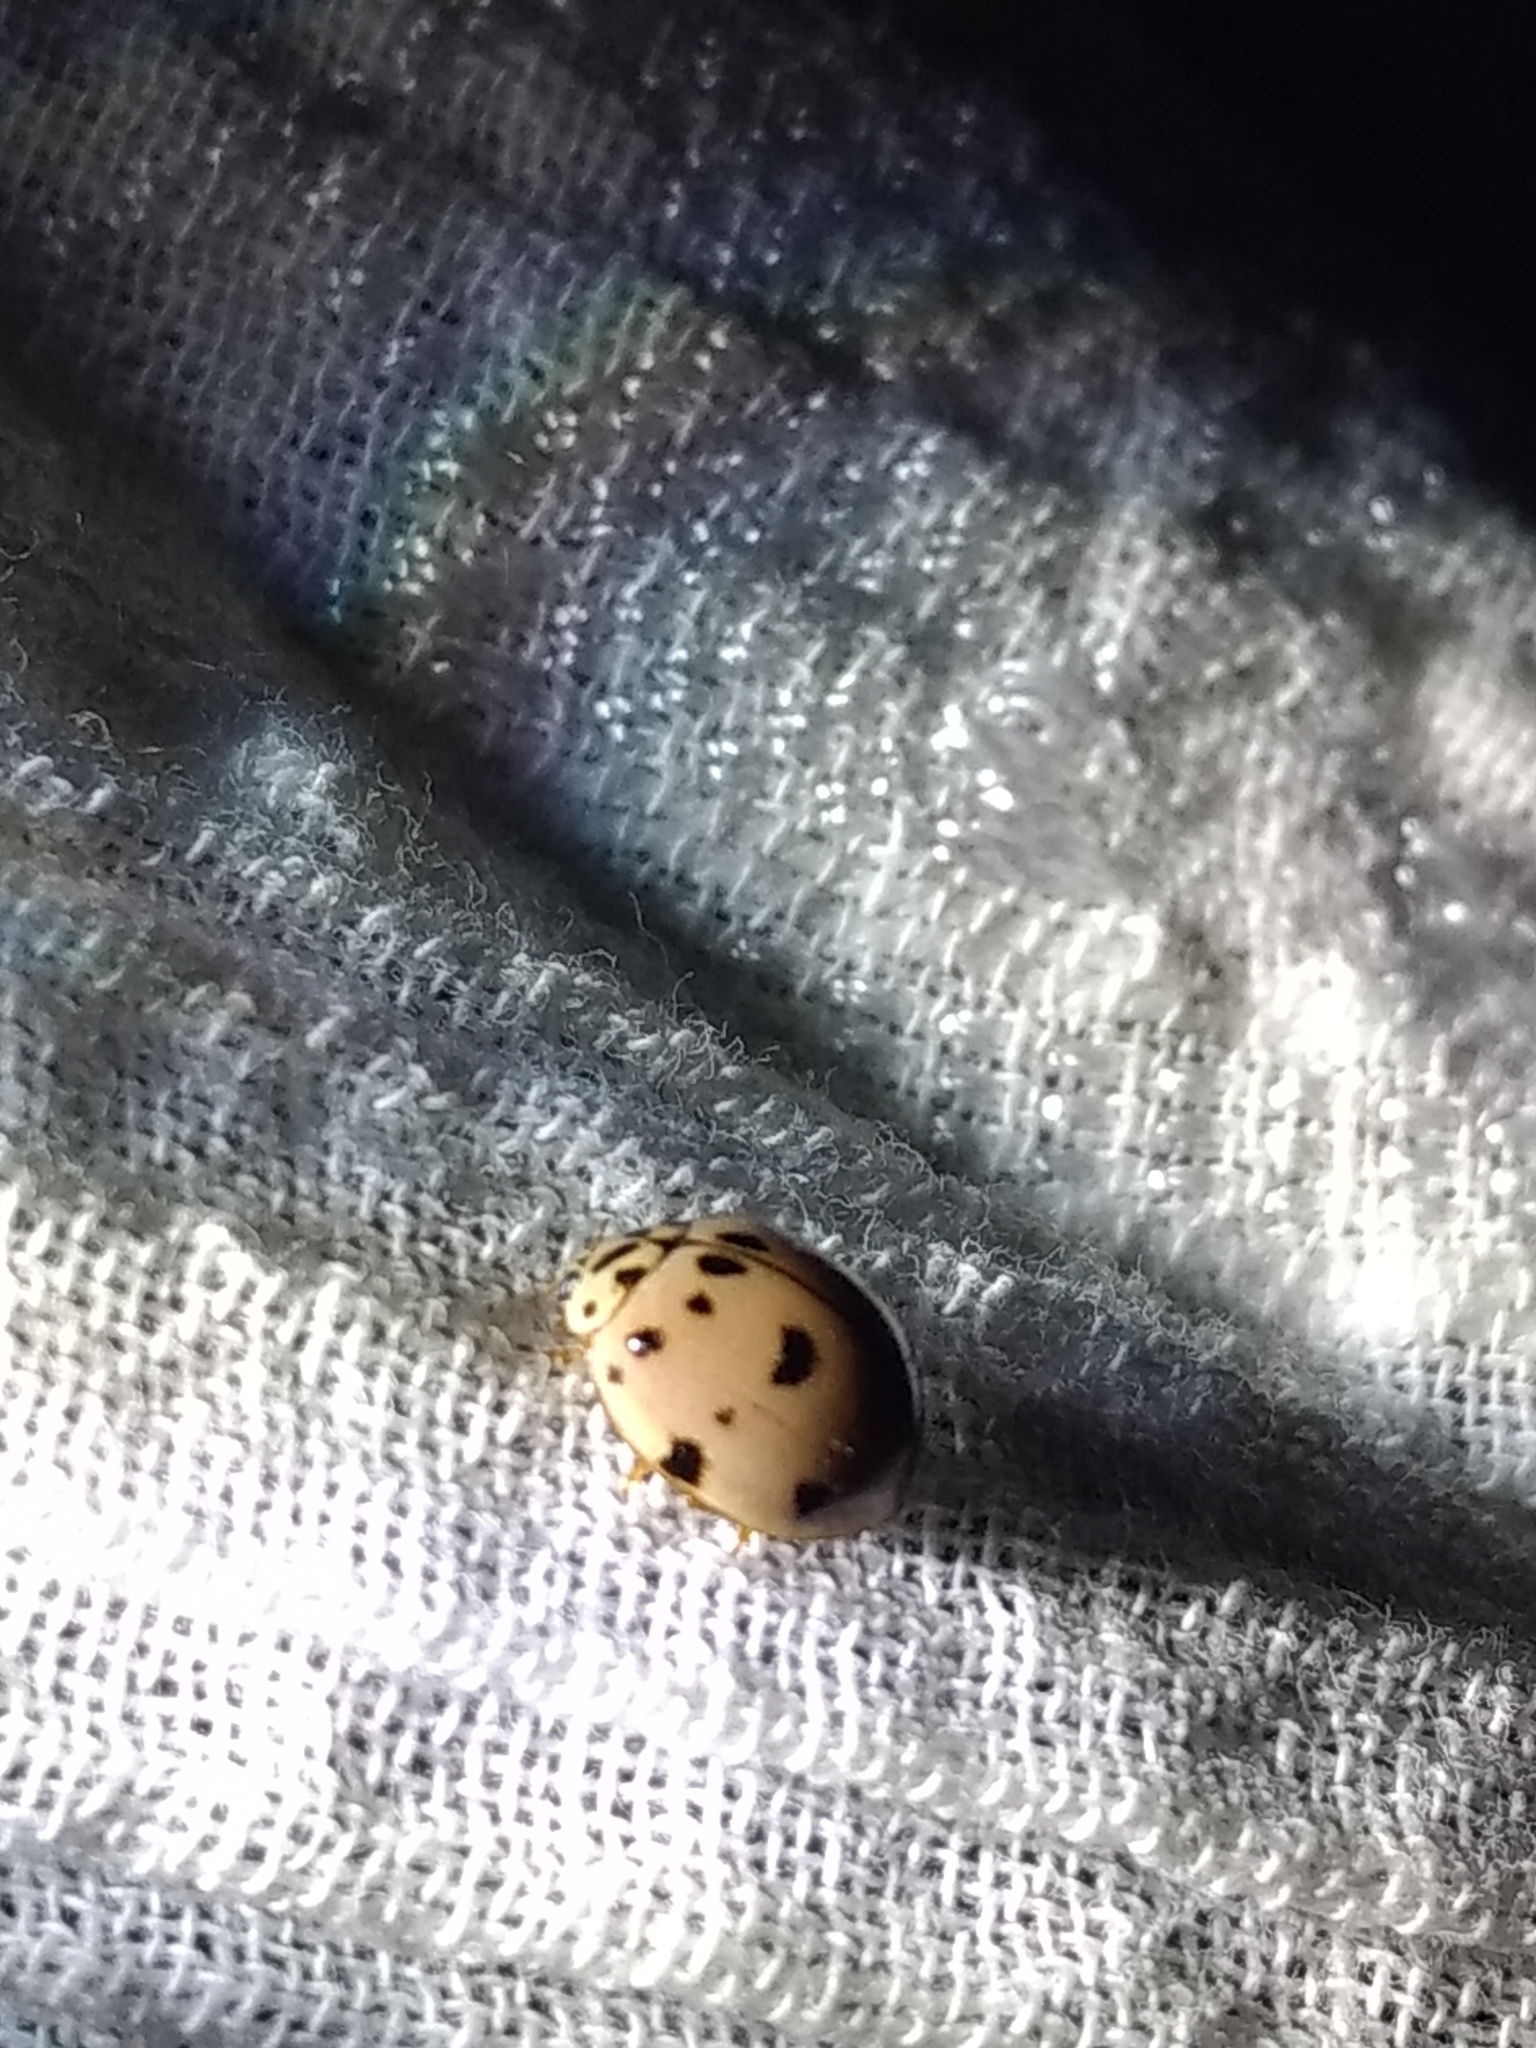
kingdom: Animalia
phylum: Arthropoda
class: Insecta
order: Coleoptera
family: Coccinellidae
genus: Olla
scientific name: Olla v-nigrum
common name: Ashy gray lady beetle
